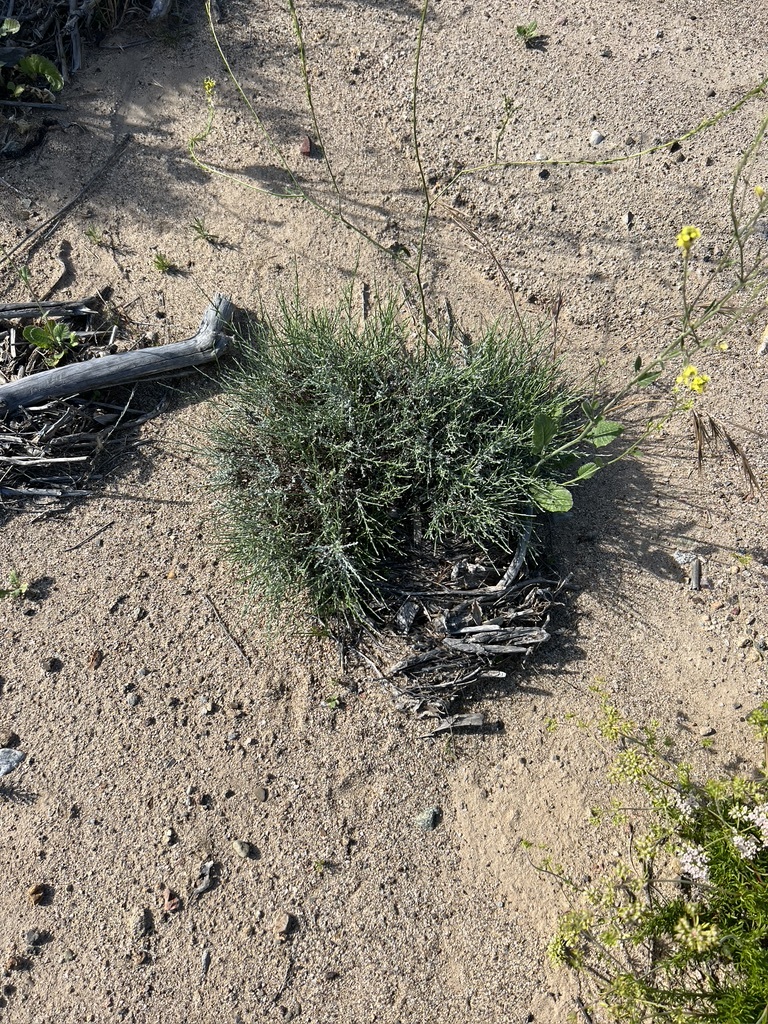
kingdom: Plantae
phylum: Tracheophyta
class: Magnoliopsida
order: Asterales
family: Asteraceae
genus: Lepidospartum
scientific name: Lepidospartum squamatum
